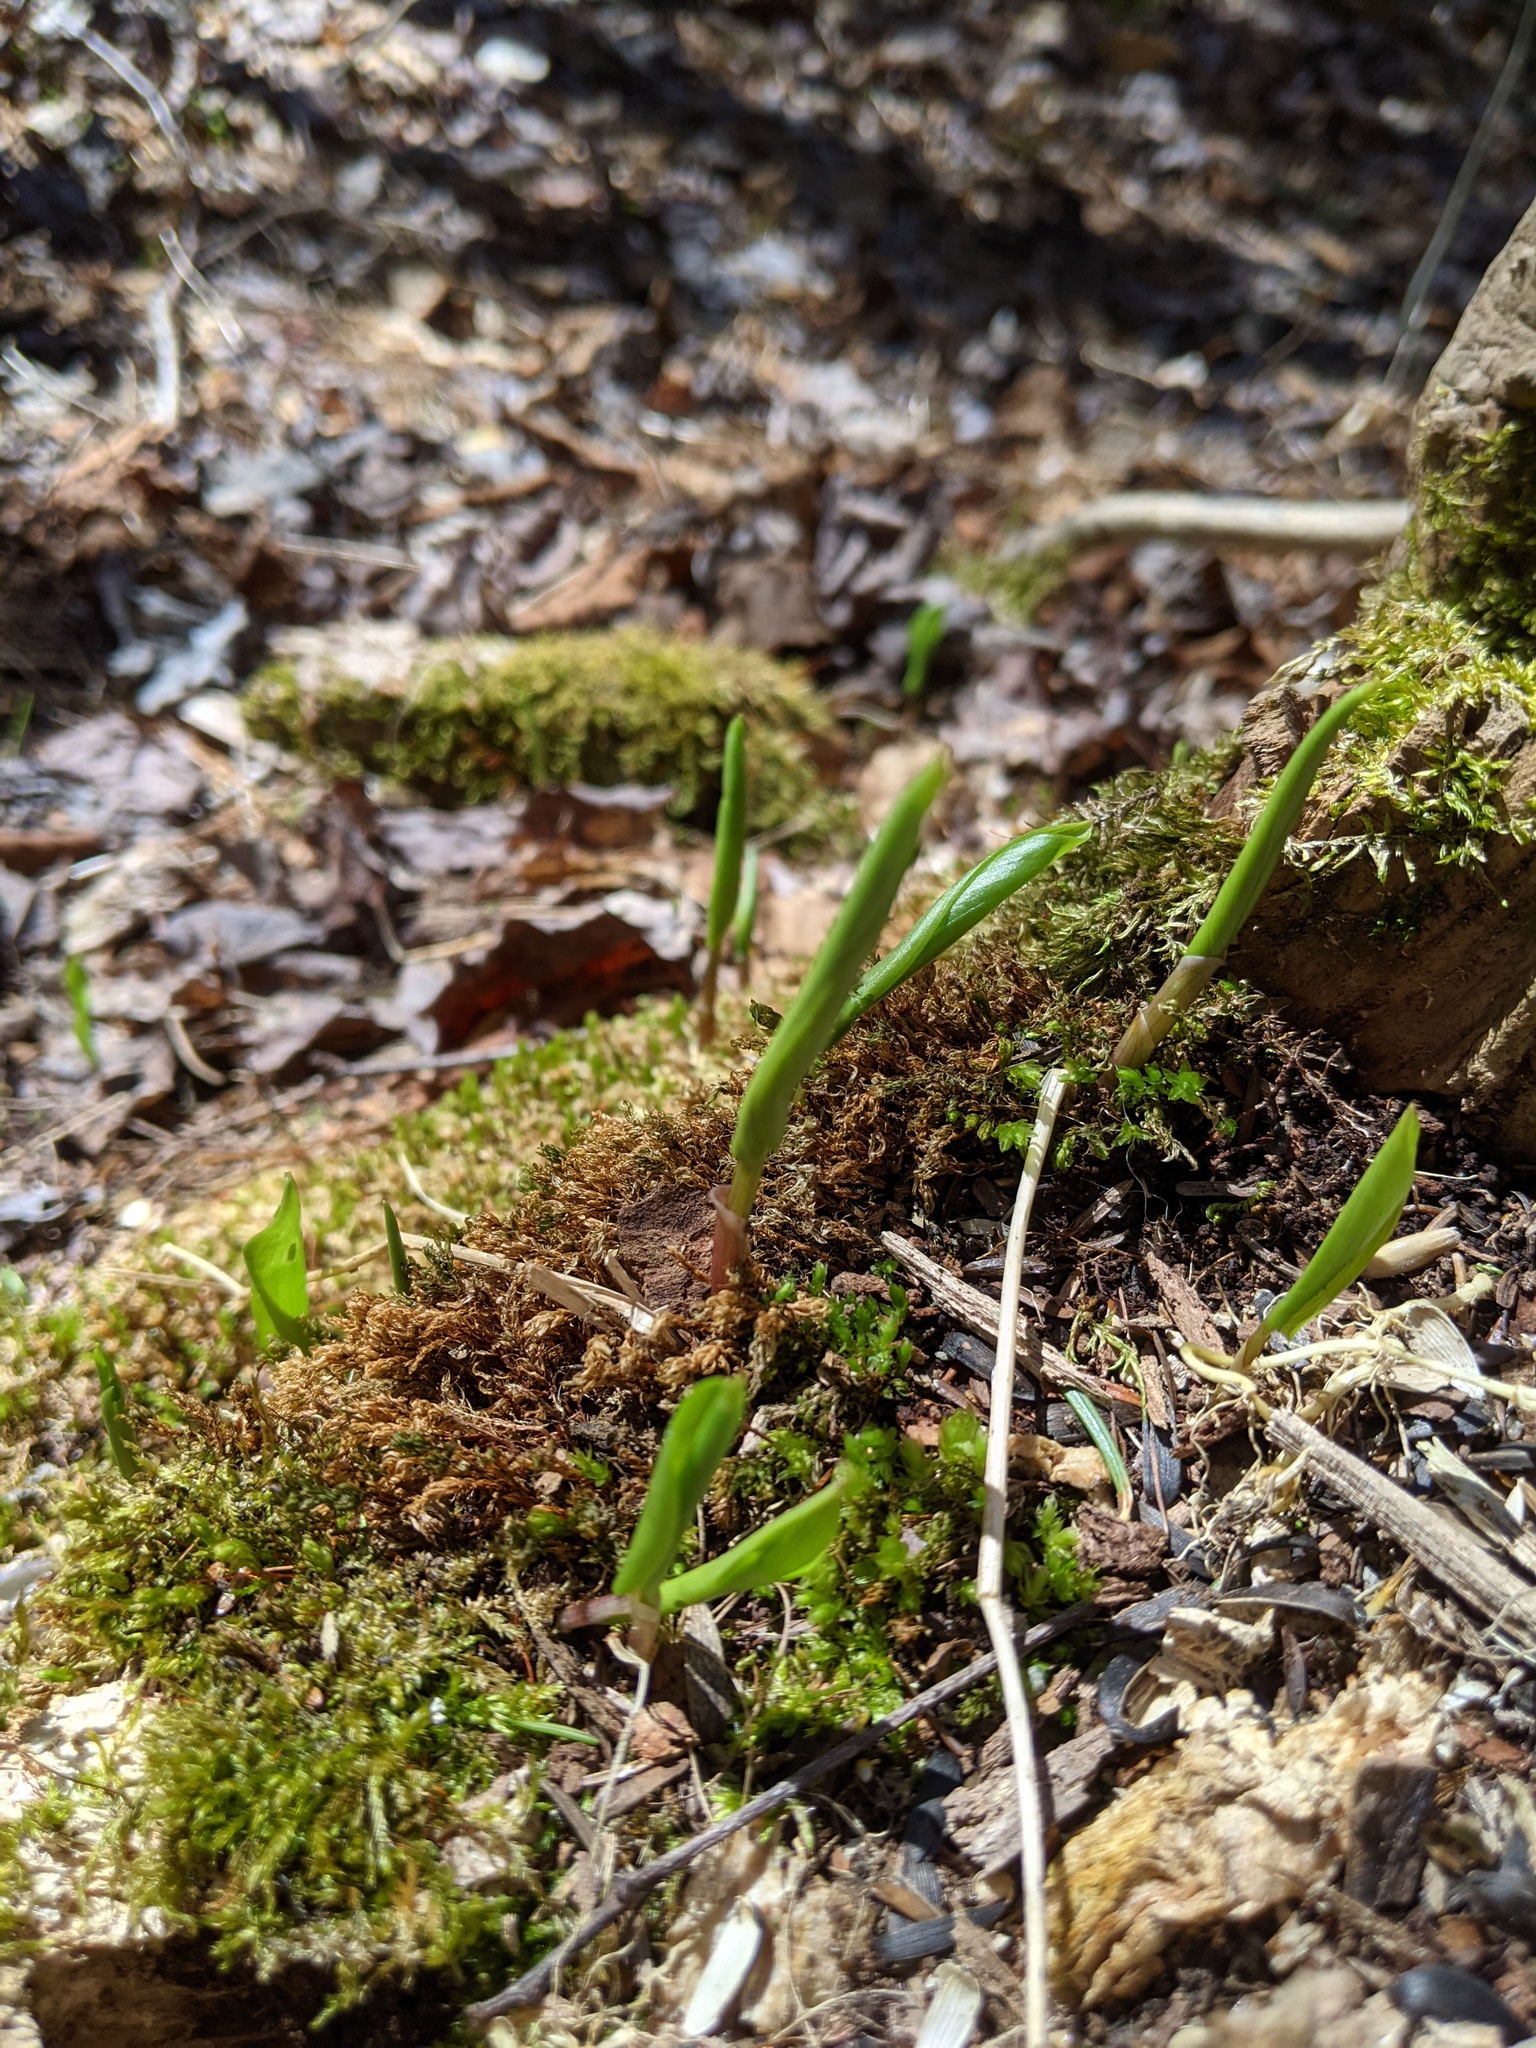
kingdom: Plantae
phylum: Tracheophyta
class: Liliopsida
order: Asparagales
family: Asparagaceae
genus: Maianthemum
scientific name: Maianthemum canadense
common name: False lily-of-the-valley
